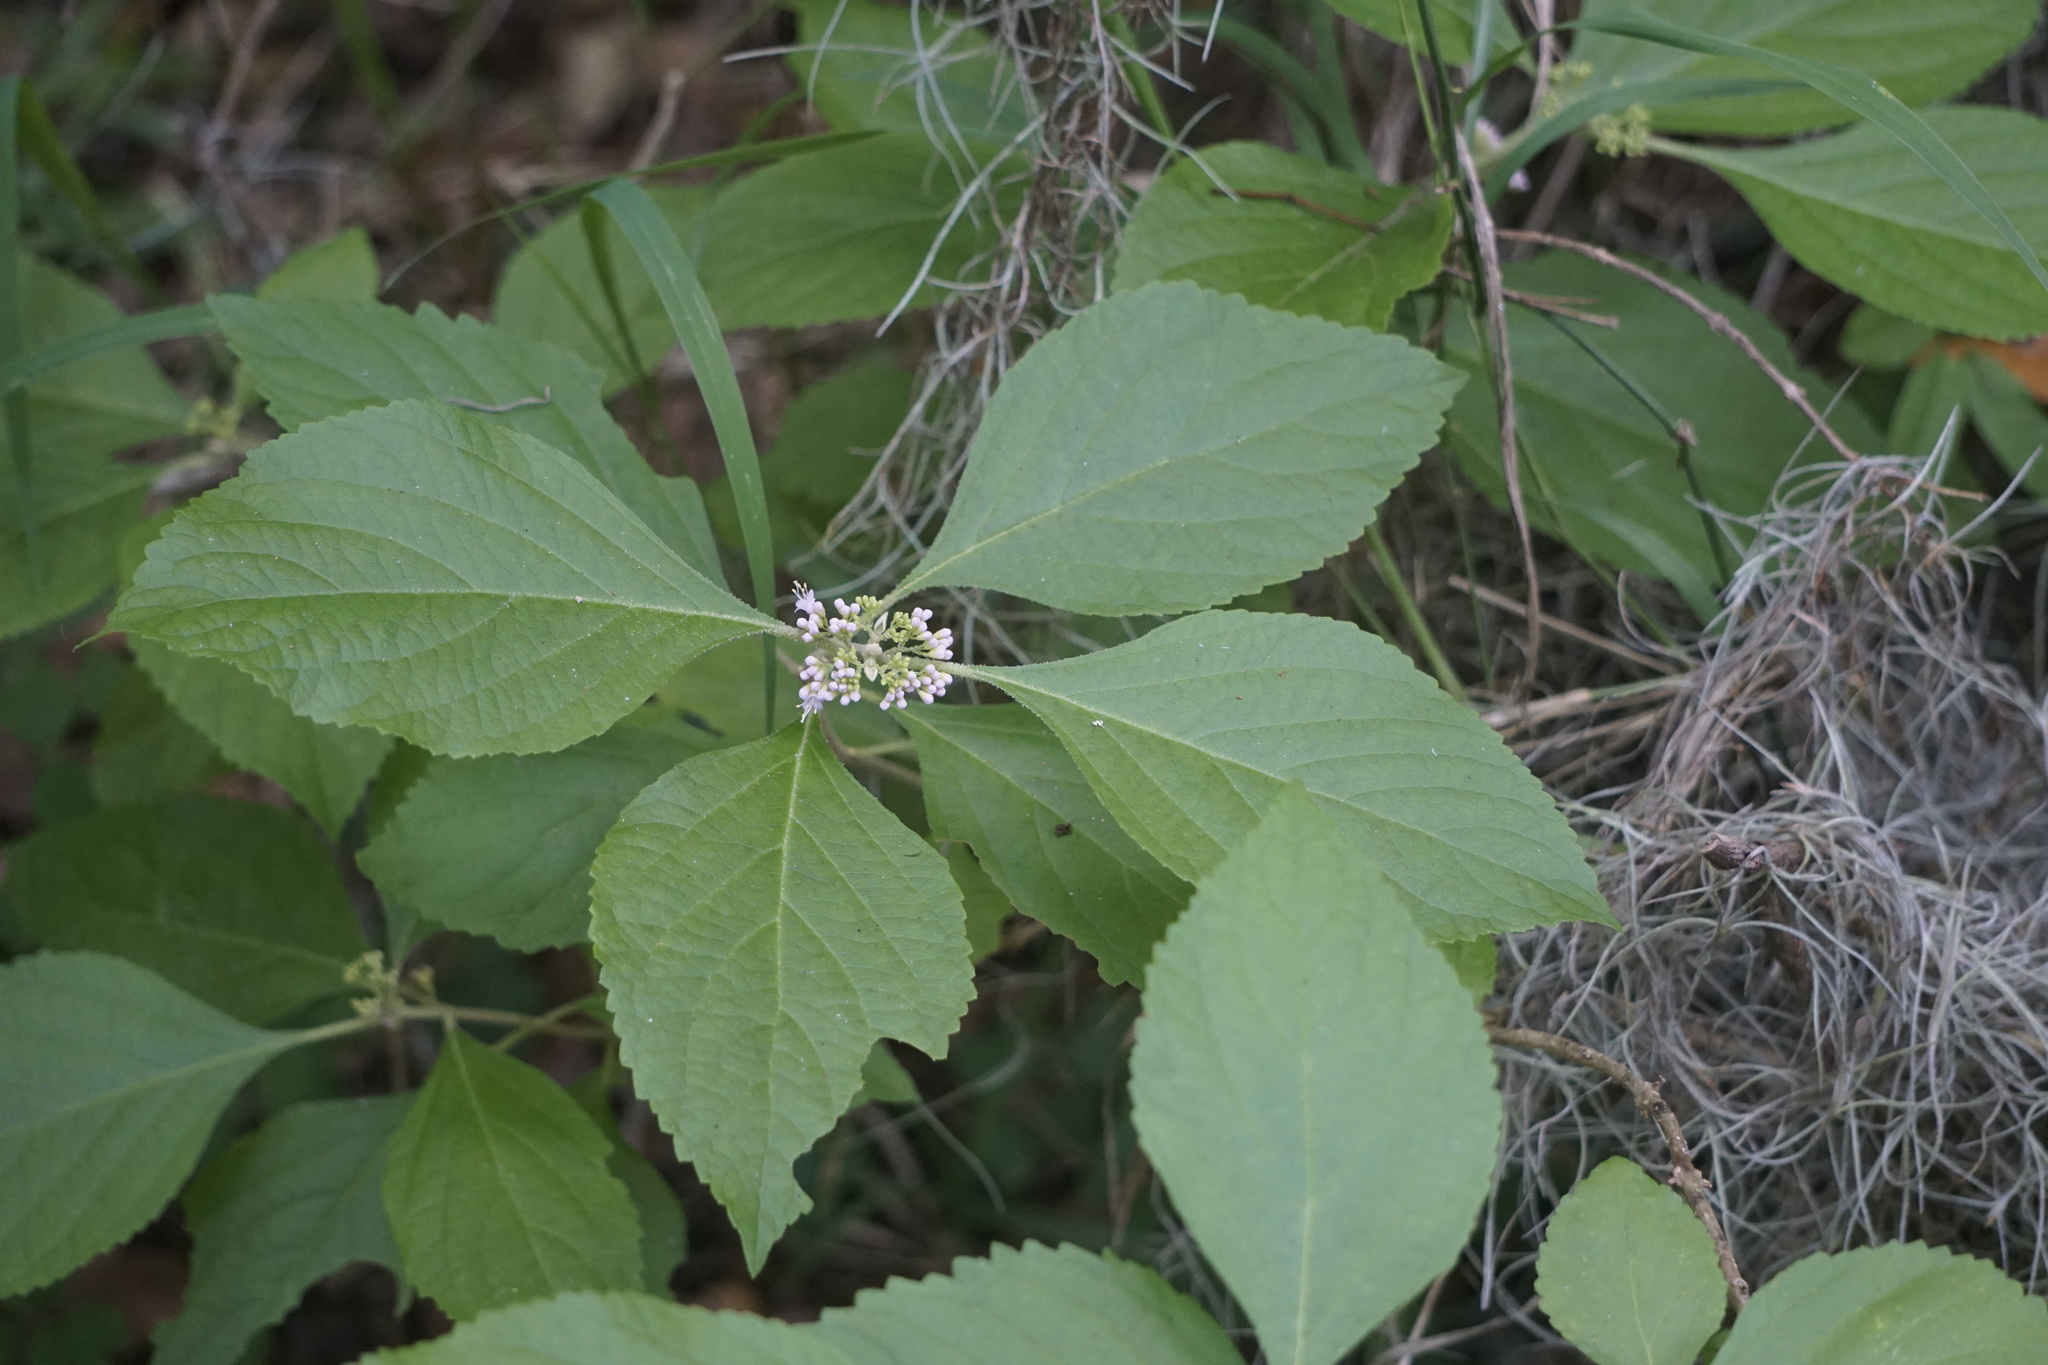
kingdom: Plantae
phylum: Tracheophyta
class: Magnoliopsida
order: Lamiales
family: Lamiaceae
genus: Callicarpa
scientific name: Callicarpa americana
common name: American beautyberry
